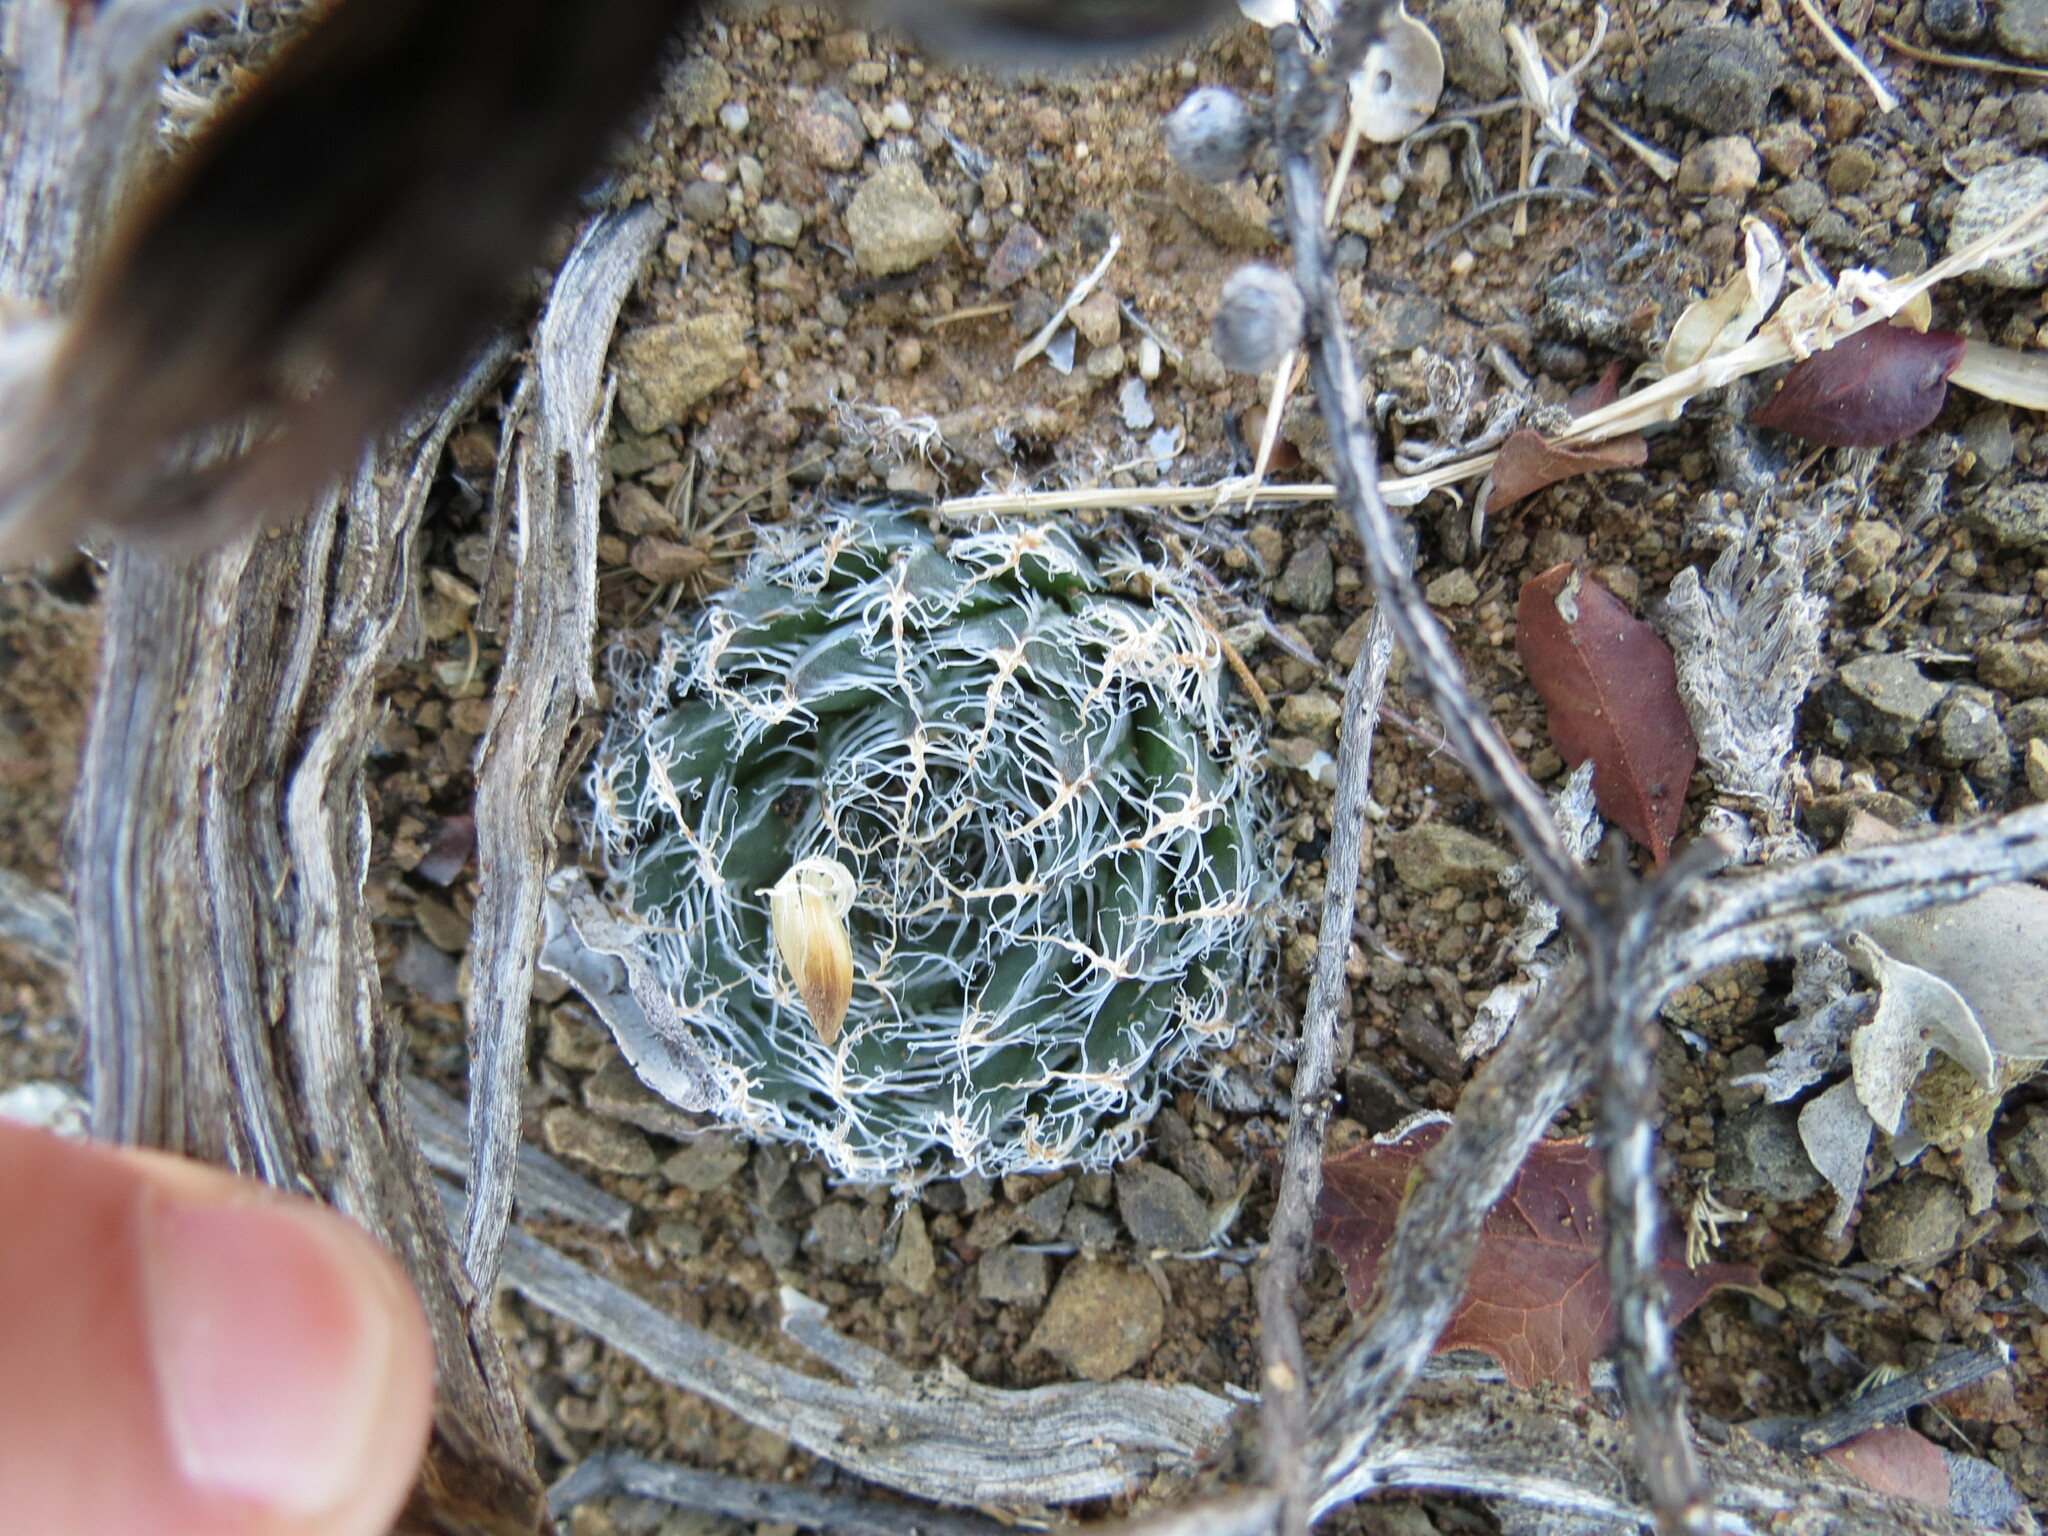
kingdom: Plantae
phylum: Tracheophyta
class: Liliopsida
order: Asparagales
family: Asphodelaceae
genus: Haworthia
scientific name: Haworthia arachnoidea
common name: Cobweb-aloe
